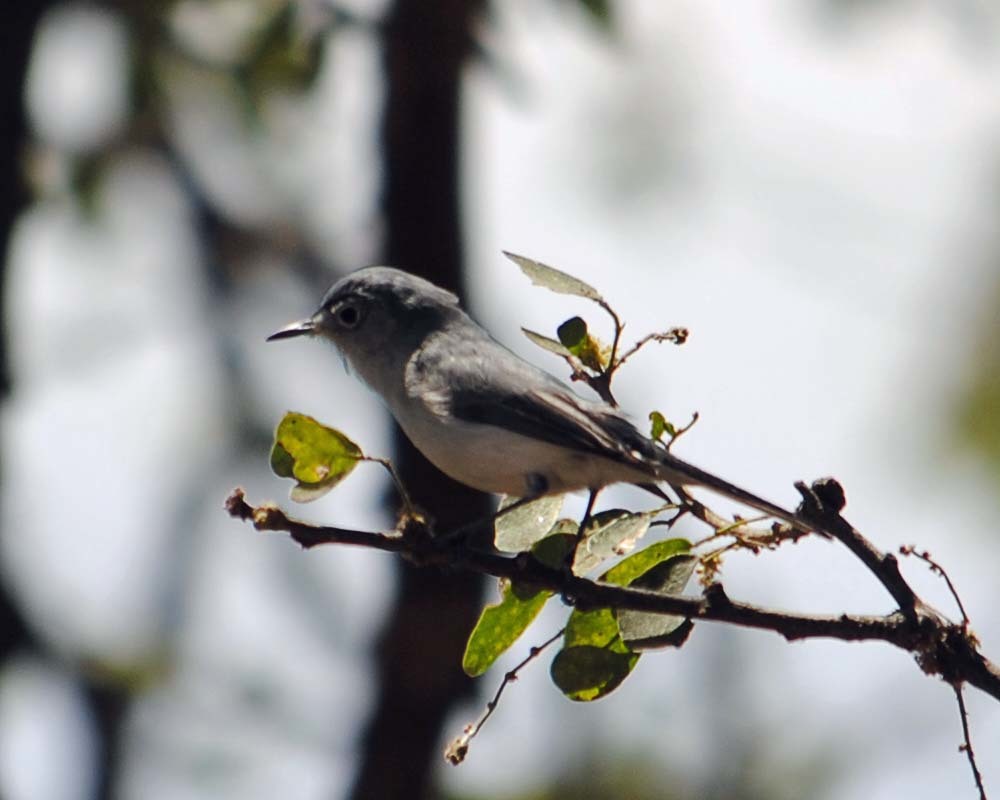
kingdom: Animalia
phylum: Chordata
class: Aves
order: Passeriformes
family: Polioptilidae
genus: Polioptila
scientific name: Polioptila caerulea
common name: Blue-gray gnatcatcher
